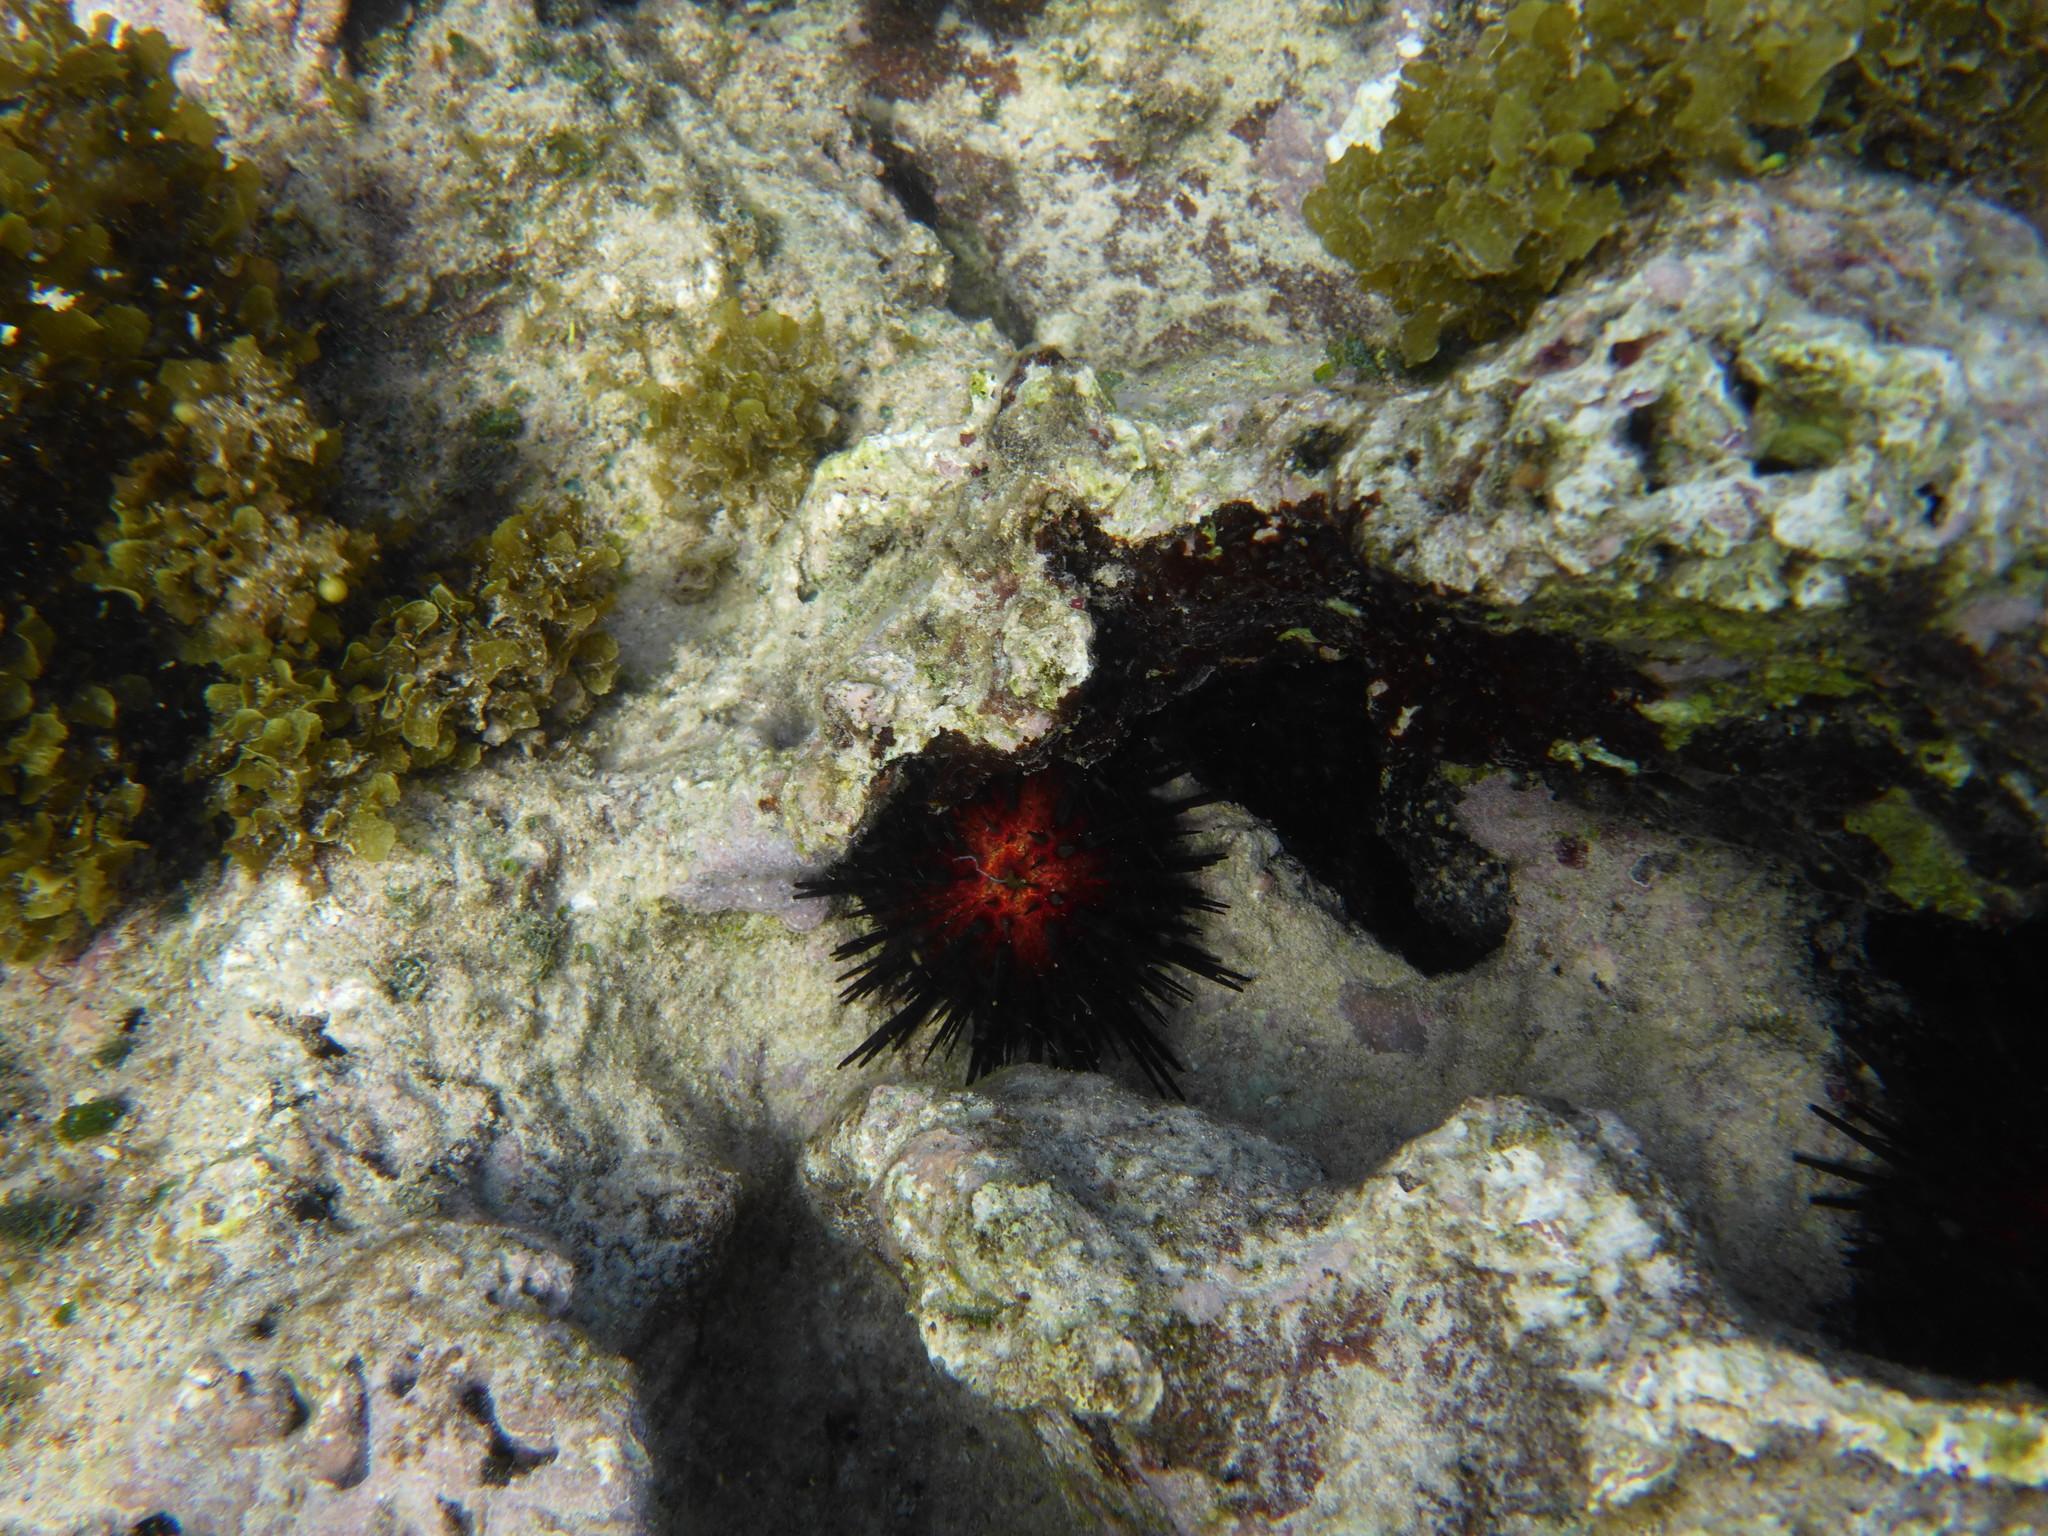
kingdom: Animalia
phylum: Echinodermata
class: Echinoidea
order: Camarodonta
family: Echinometridae
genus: Echinometra
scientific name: Echinometra lucunter
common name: Rock urchin
